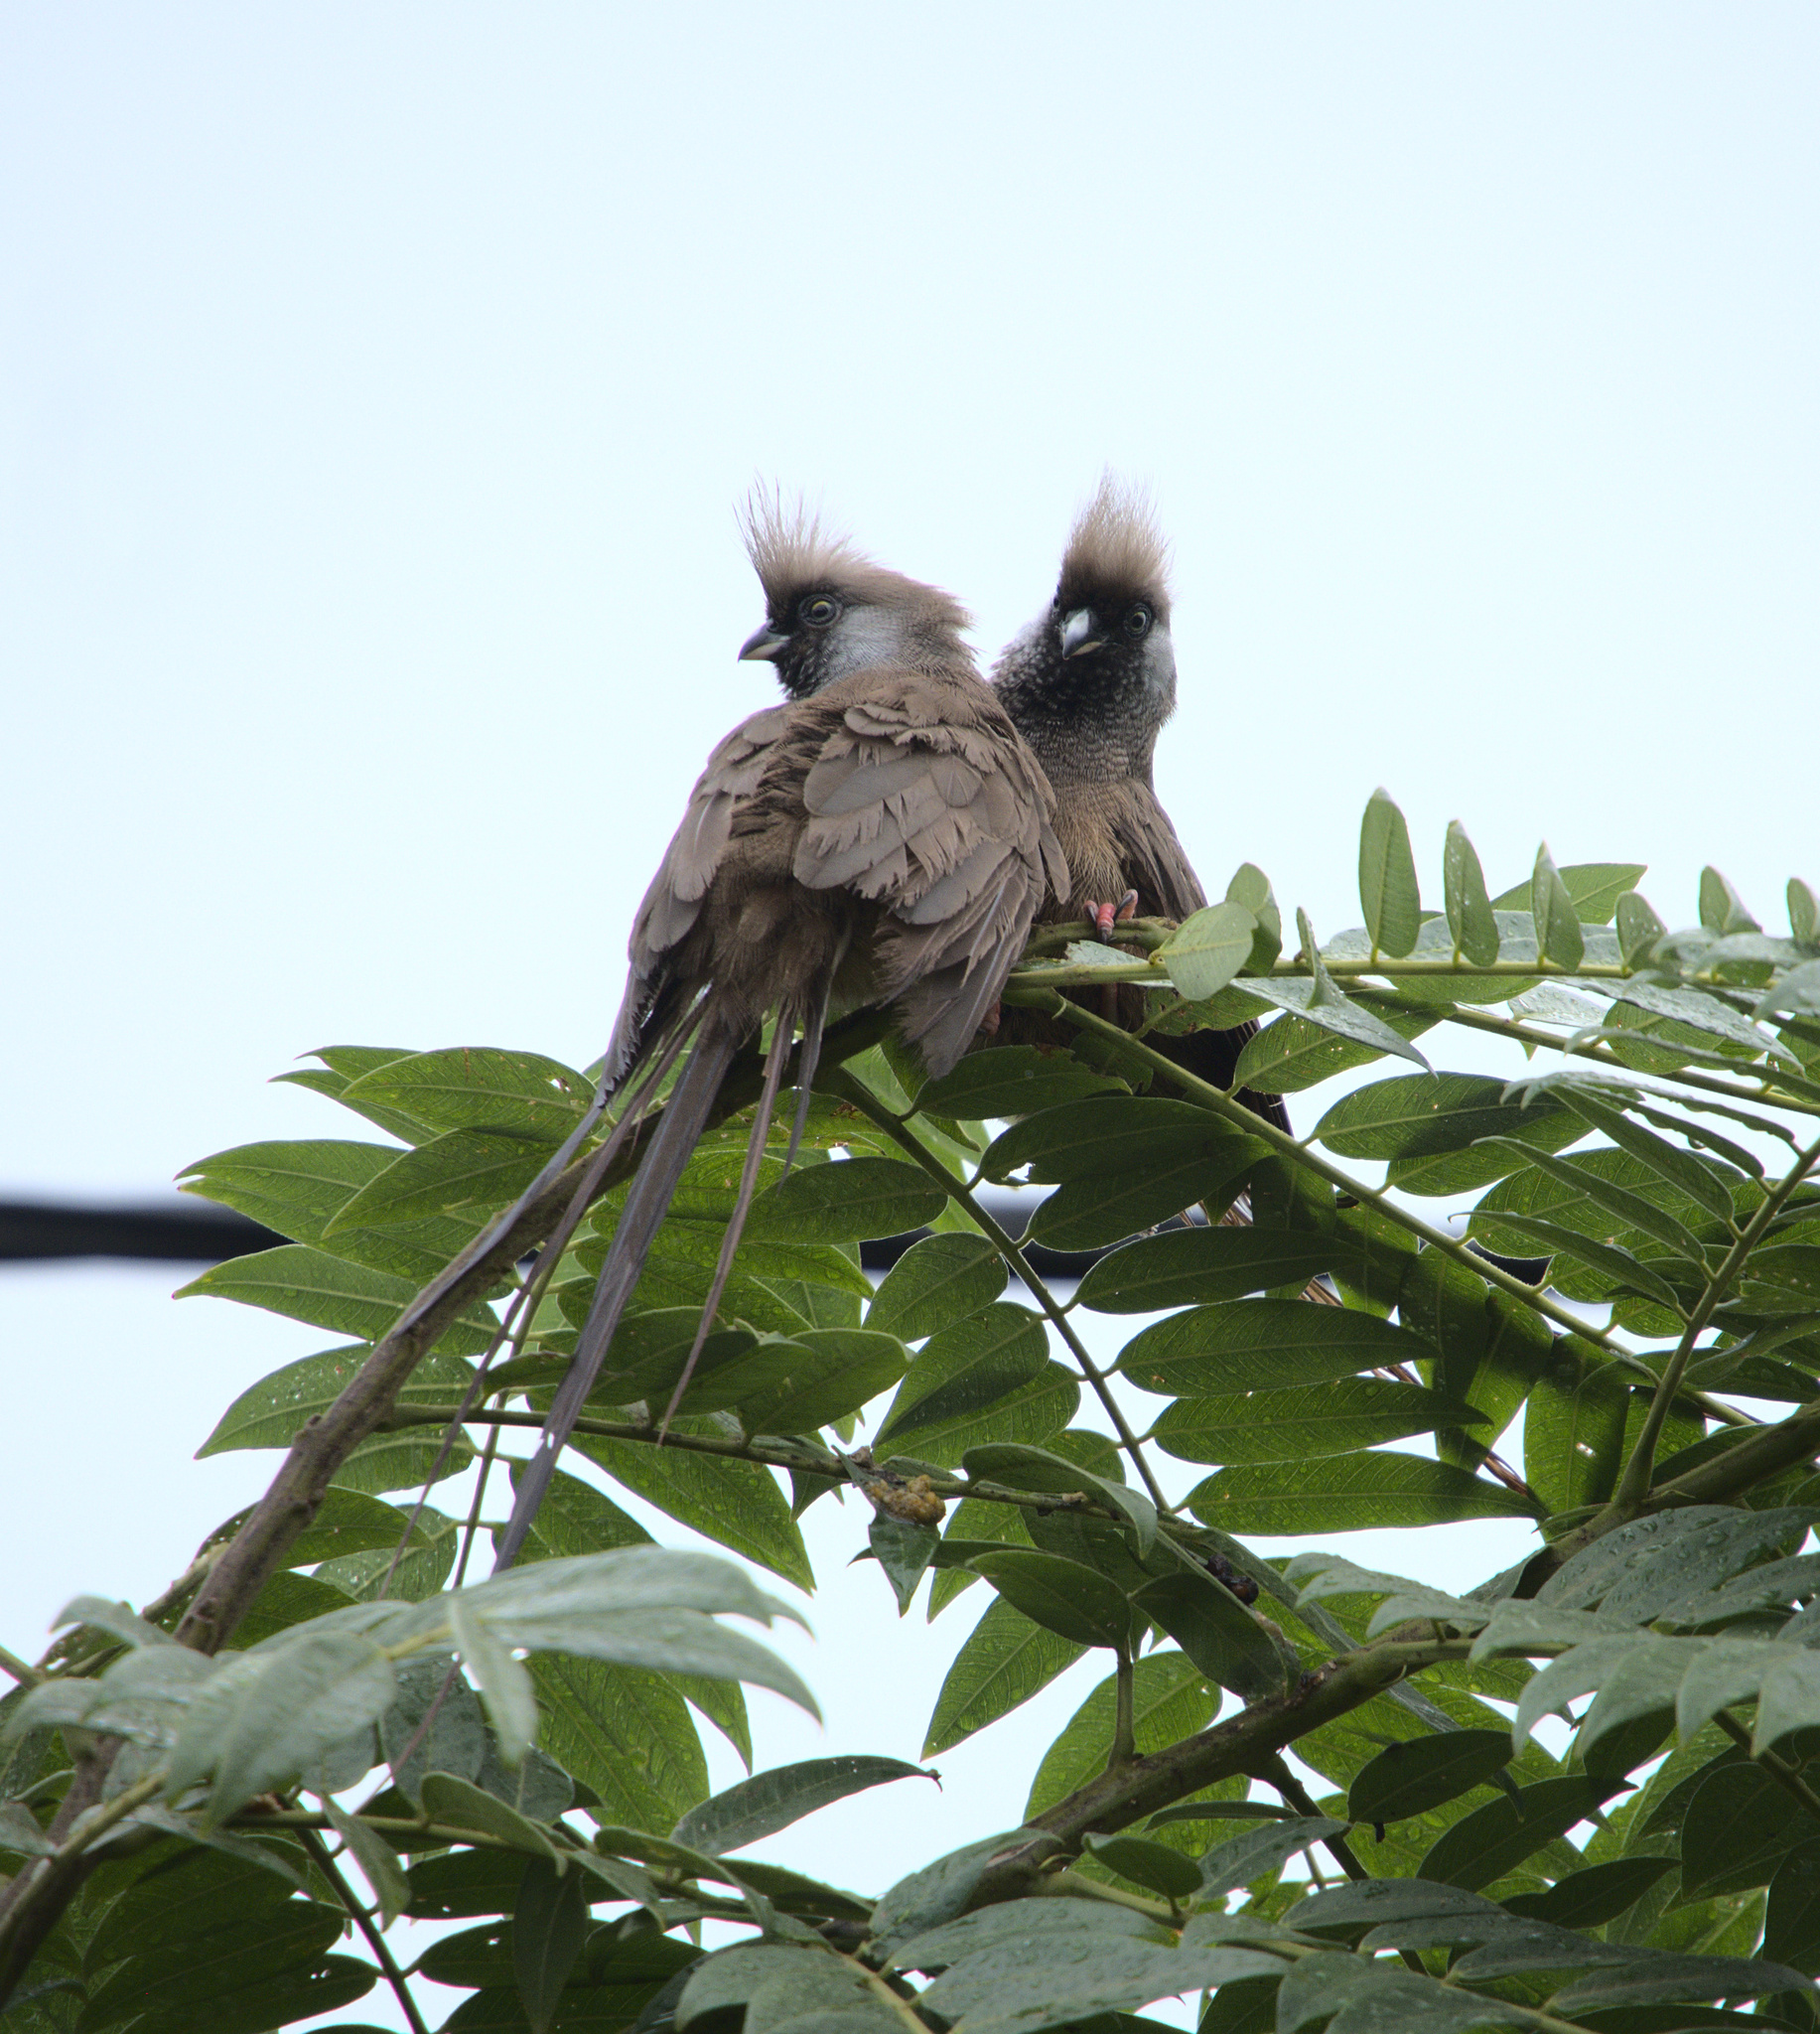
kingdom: Animalia
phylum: Chordata
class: Aves
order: Coliiformes
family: Coliidae
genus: Colius
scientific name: Colius striatus
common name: Speckled mousebird
